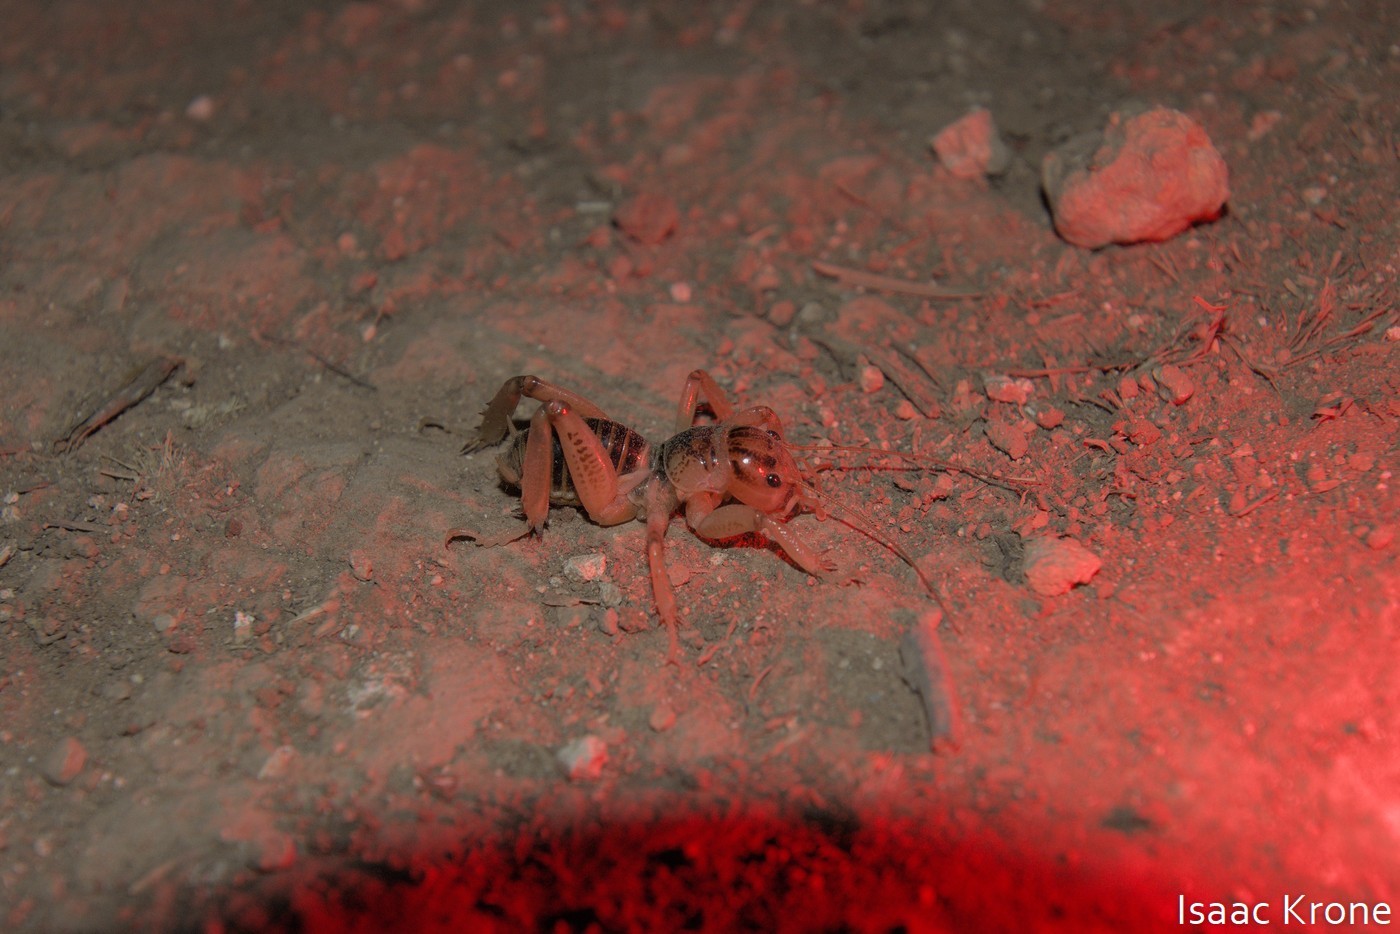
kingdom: Animalia
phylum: Arthropoda
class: Insecta
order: Orthoptera
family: Stenopelmatidae
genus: Ammopelmatus
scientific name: Ammopelmatus pictus
